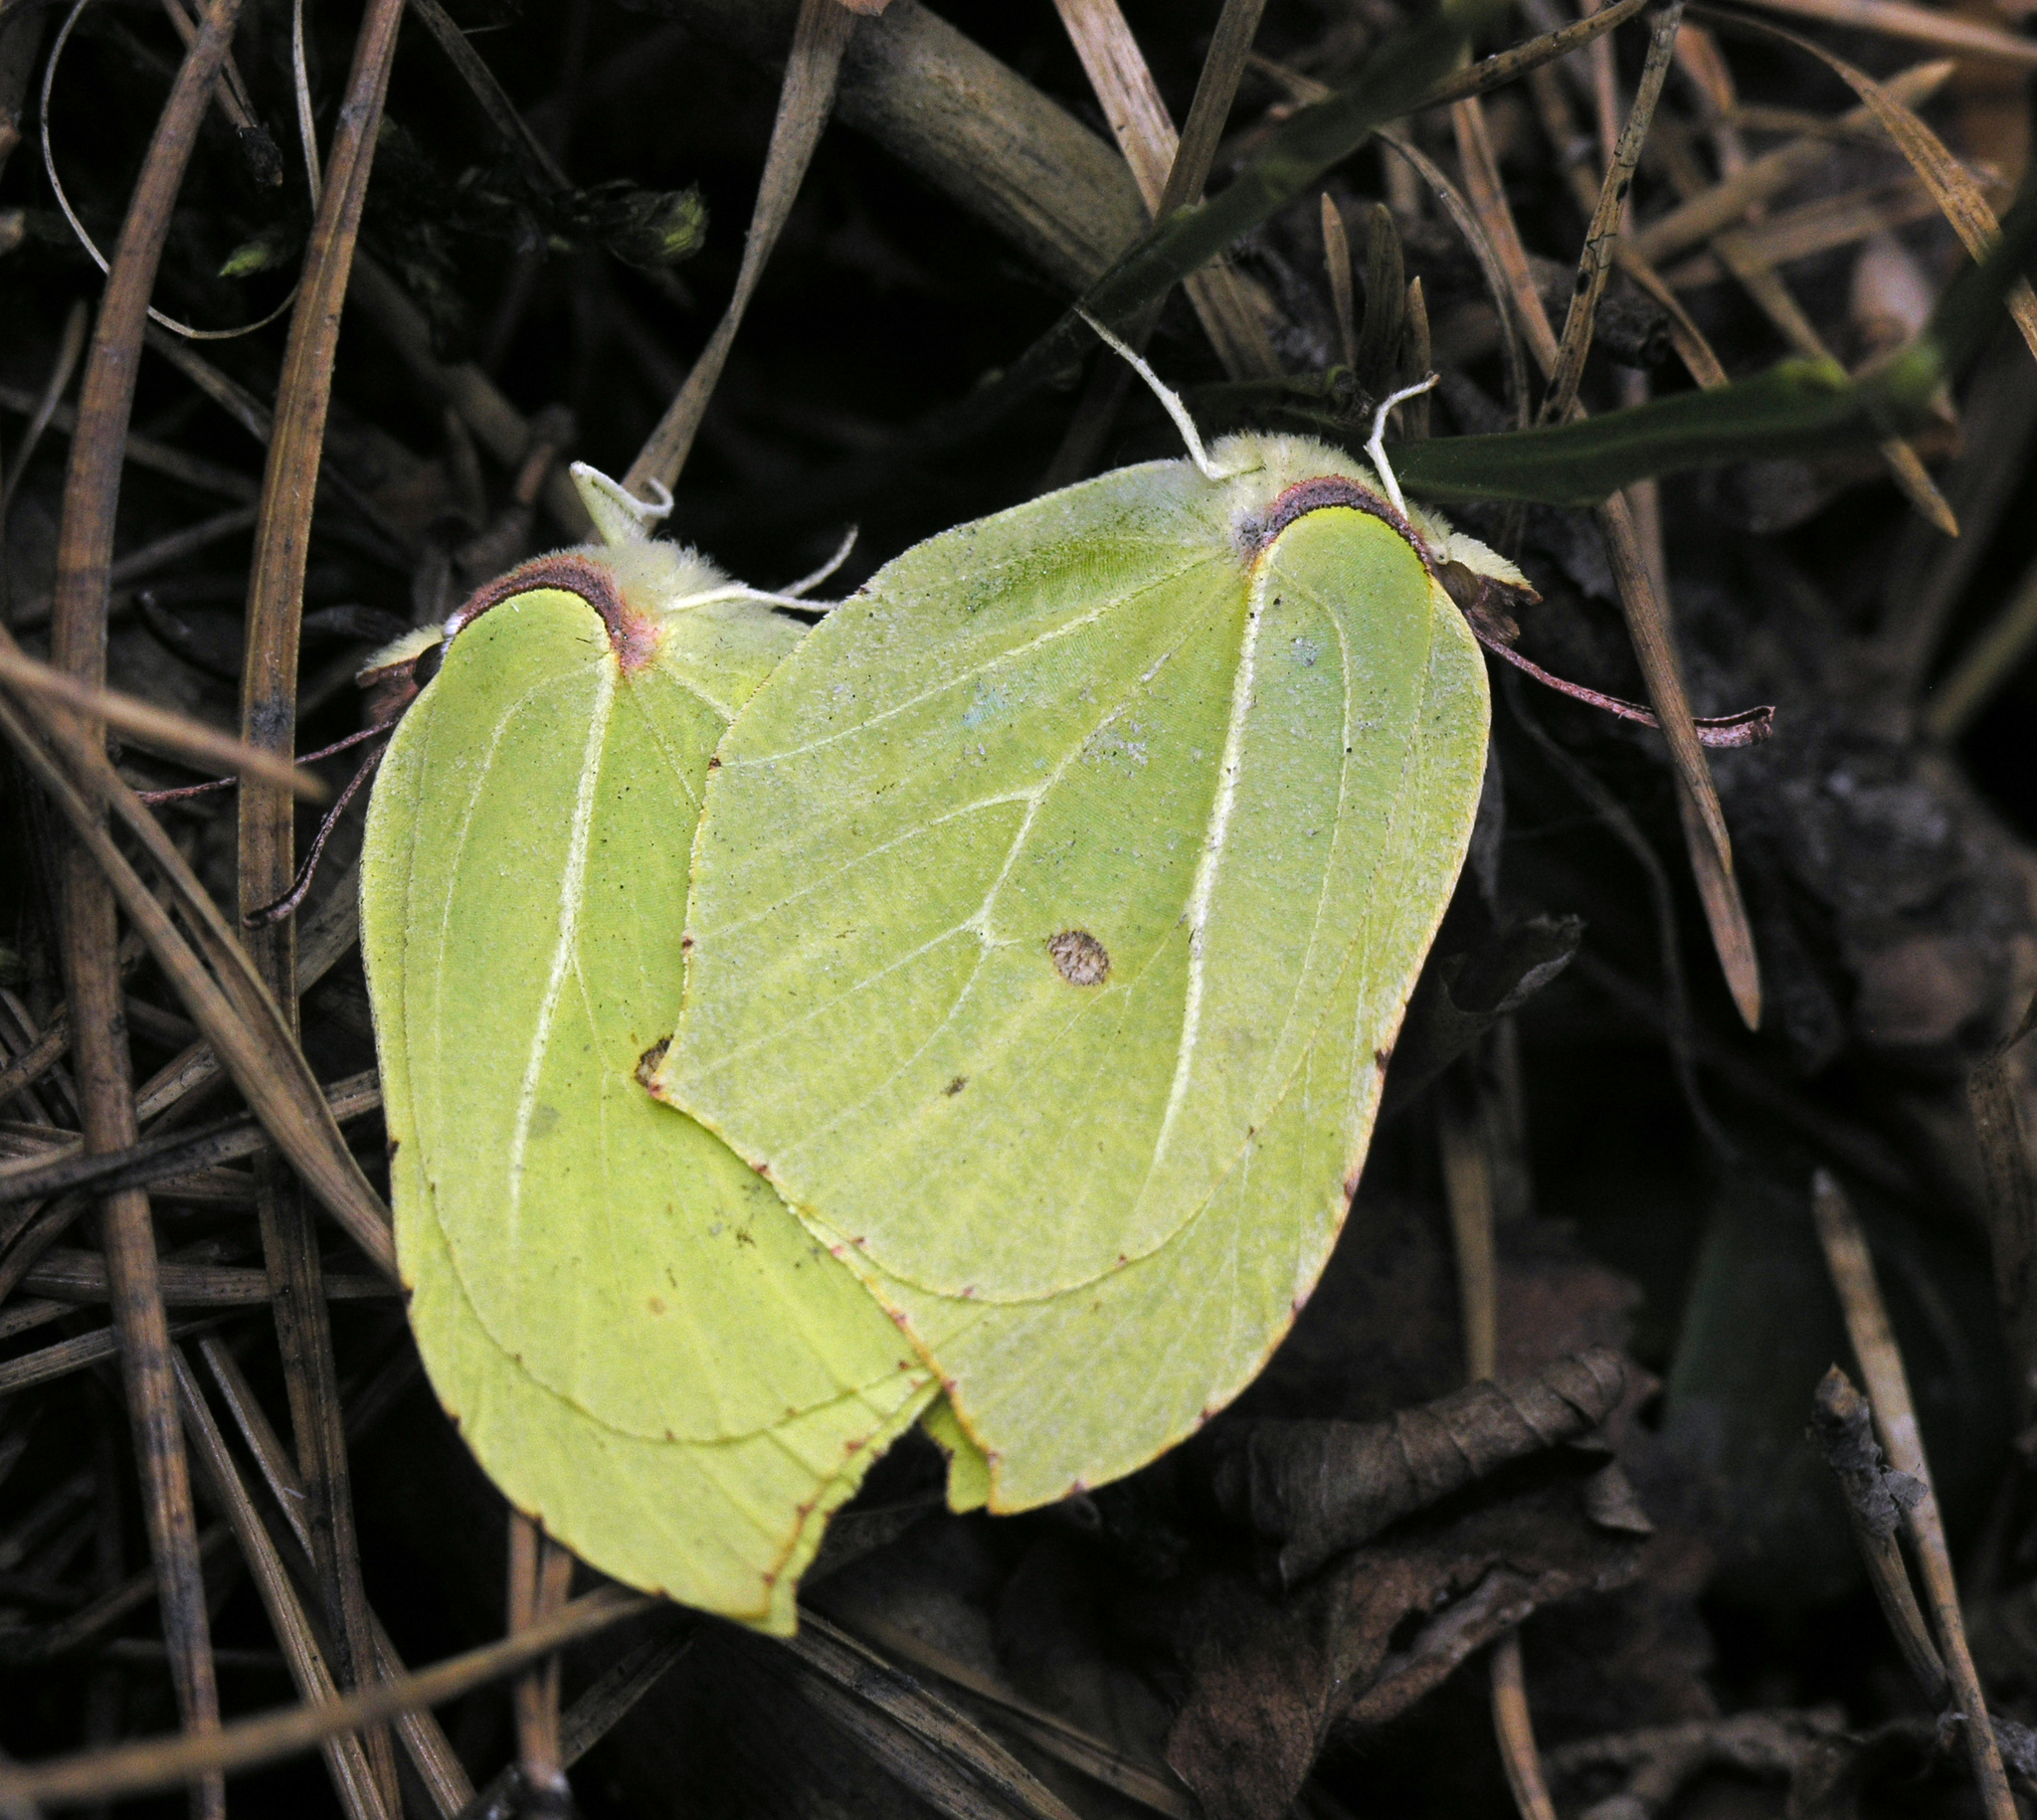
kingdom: Animalia
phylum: Arthropoda
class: Insecta
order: Lepidoptera
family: Pieridae
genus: Gonepteryx
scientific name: Gonepteryx rhamni
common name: Brimstone
